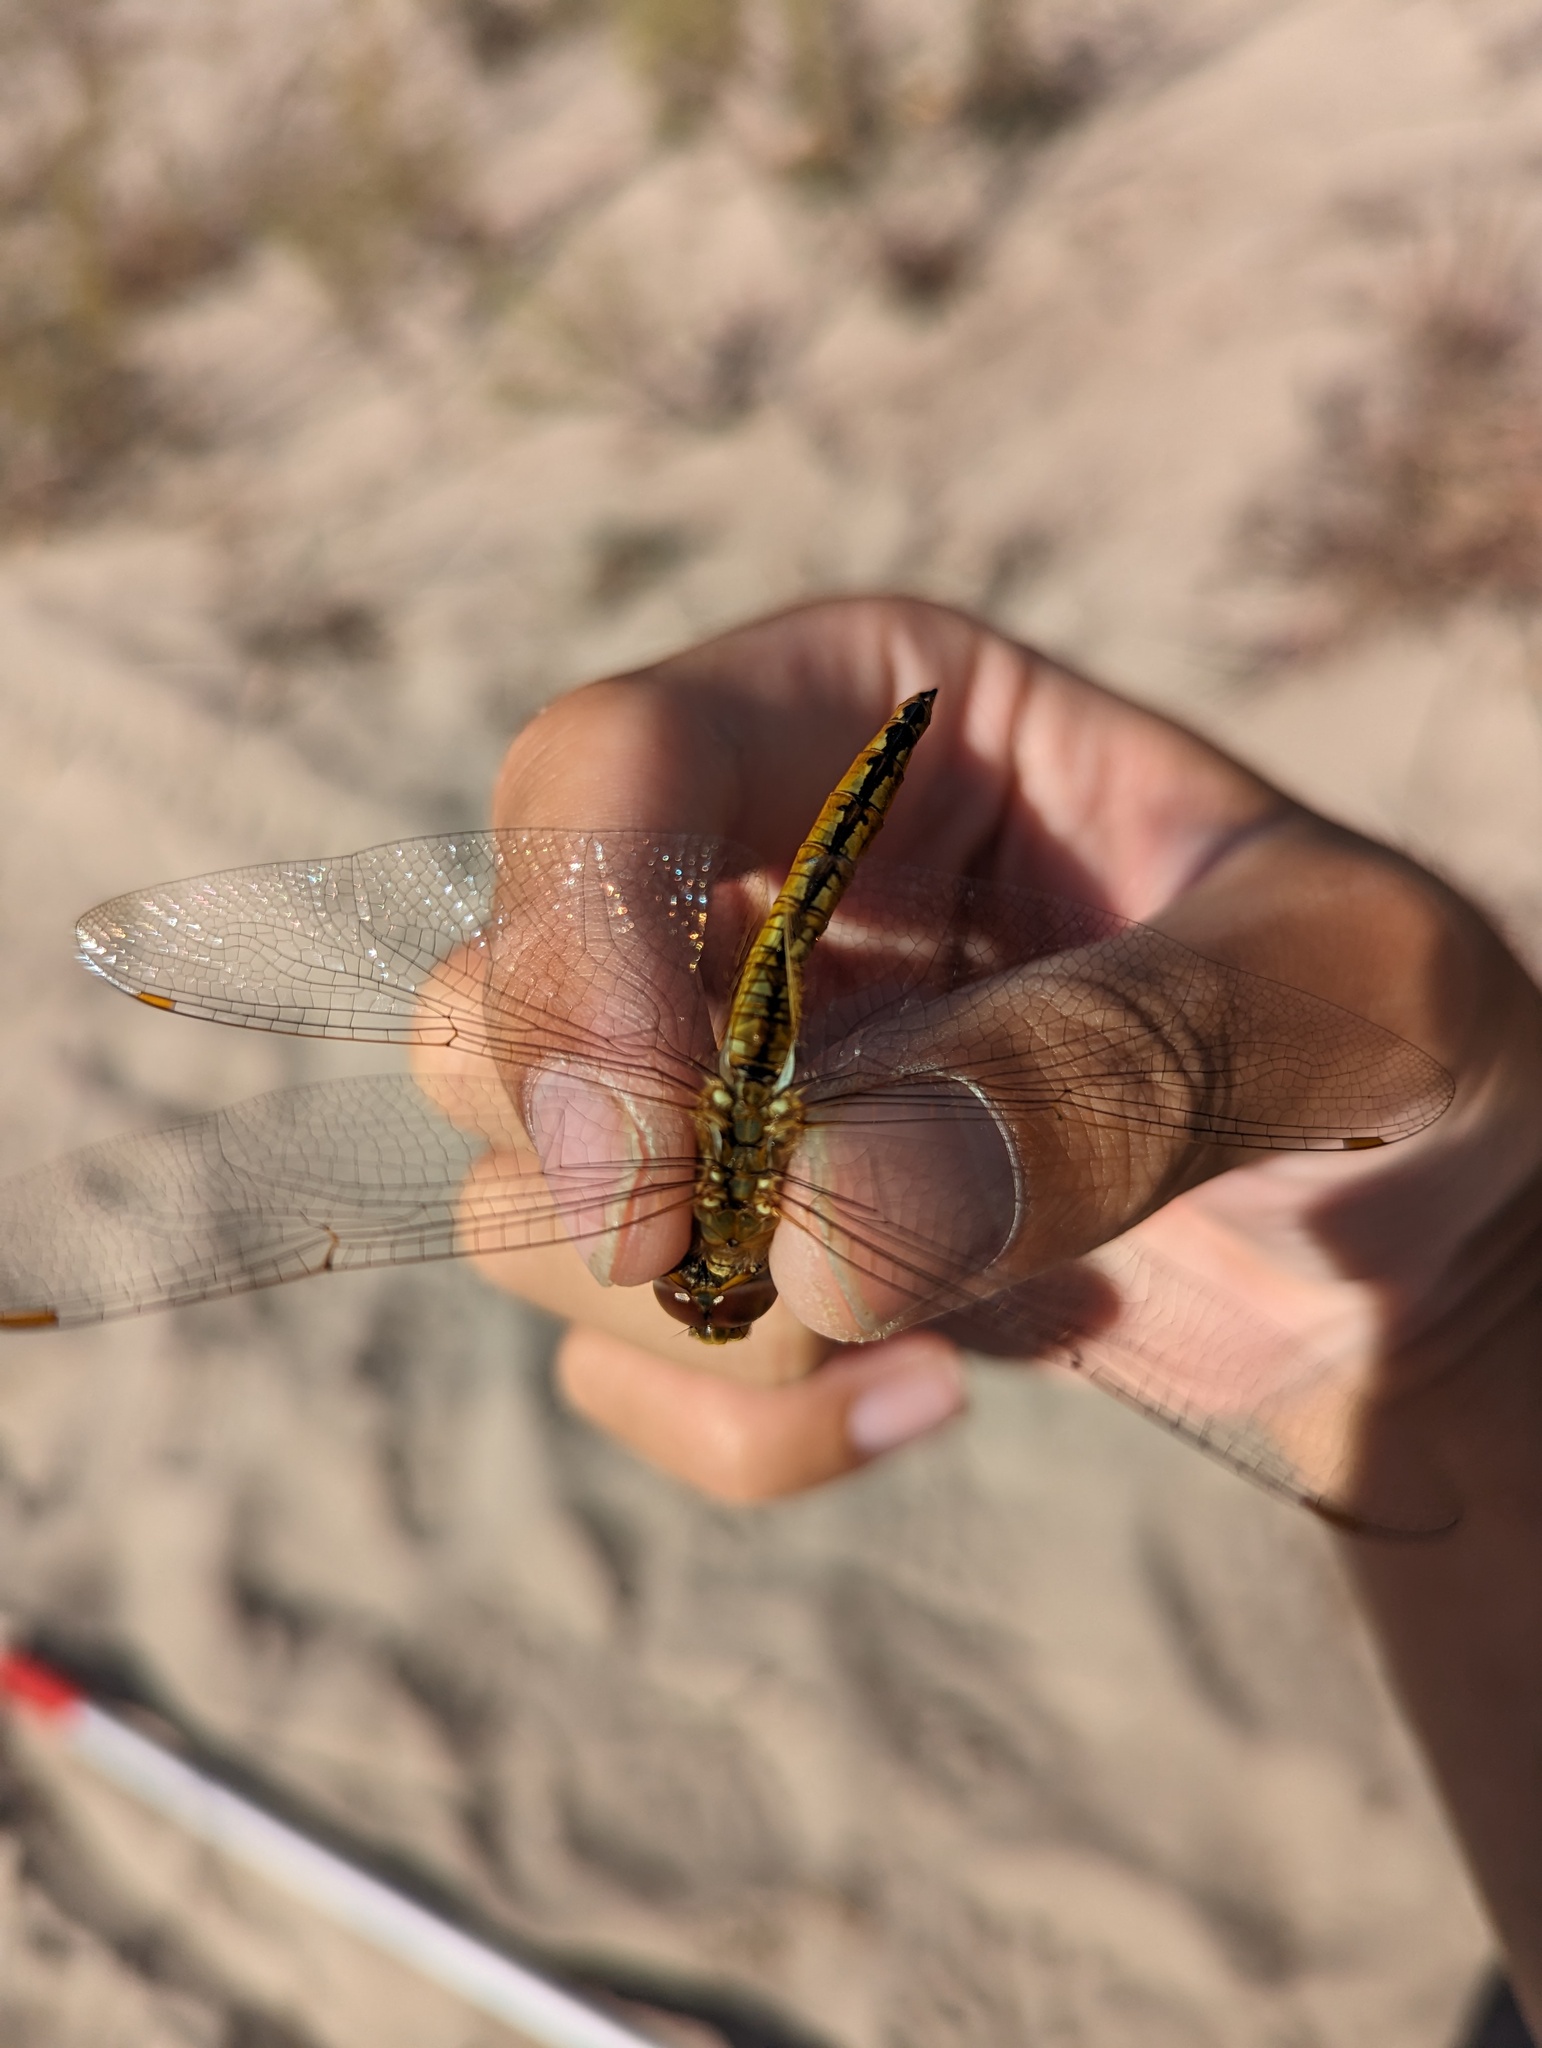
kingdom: Animalia
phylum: Arthropoda
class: Insecta
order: Odonata
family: Libellulidae
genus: Pantala
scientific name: Pantala flavescens
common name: Wandering glider
